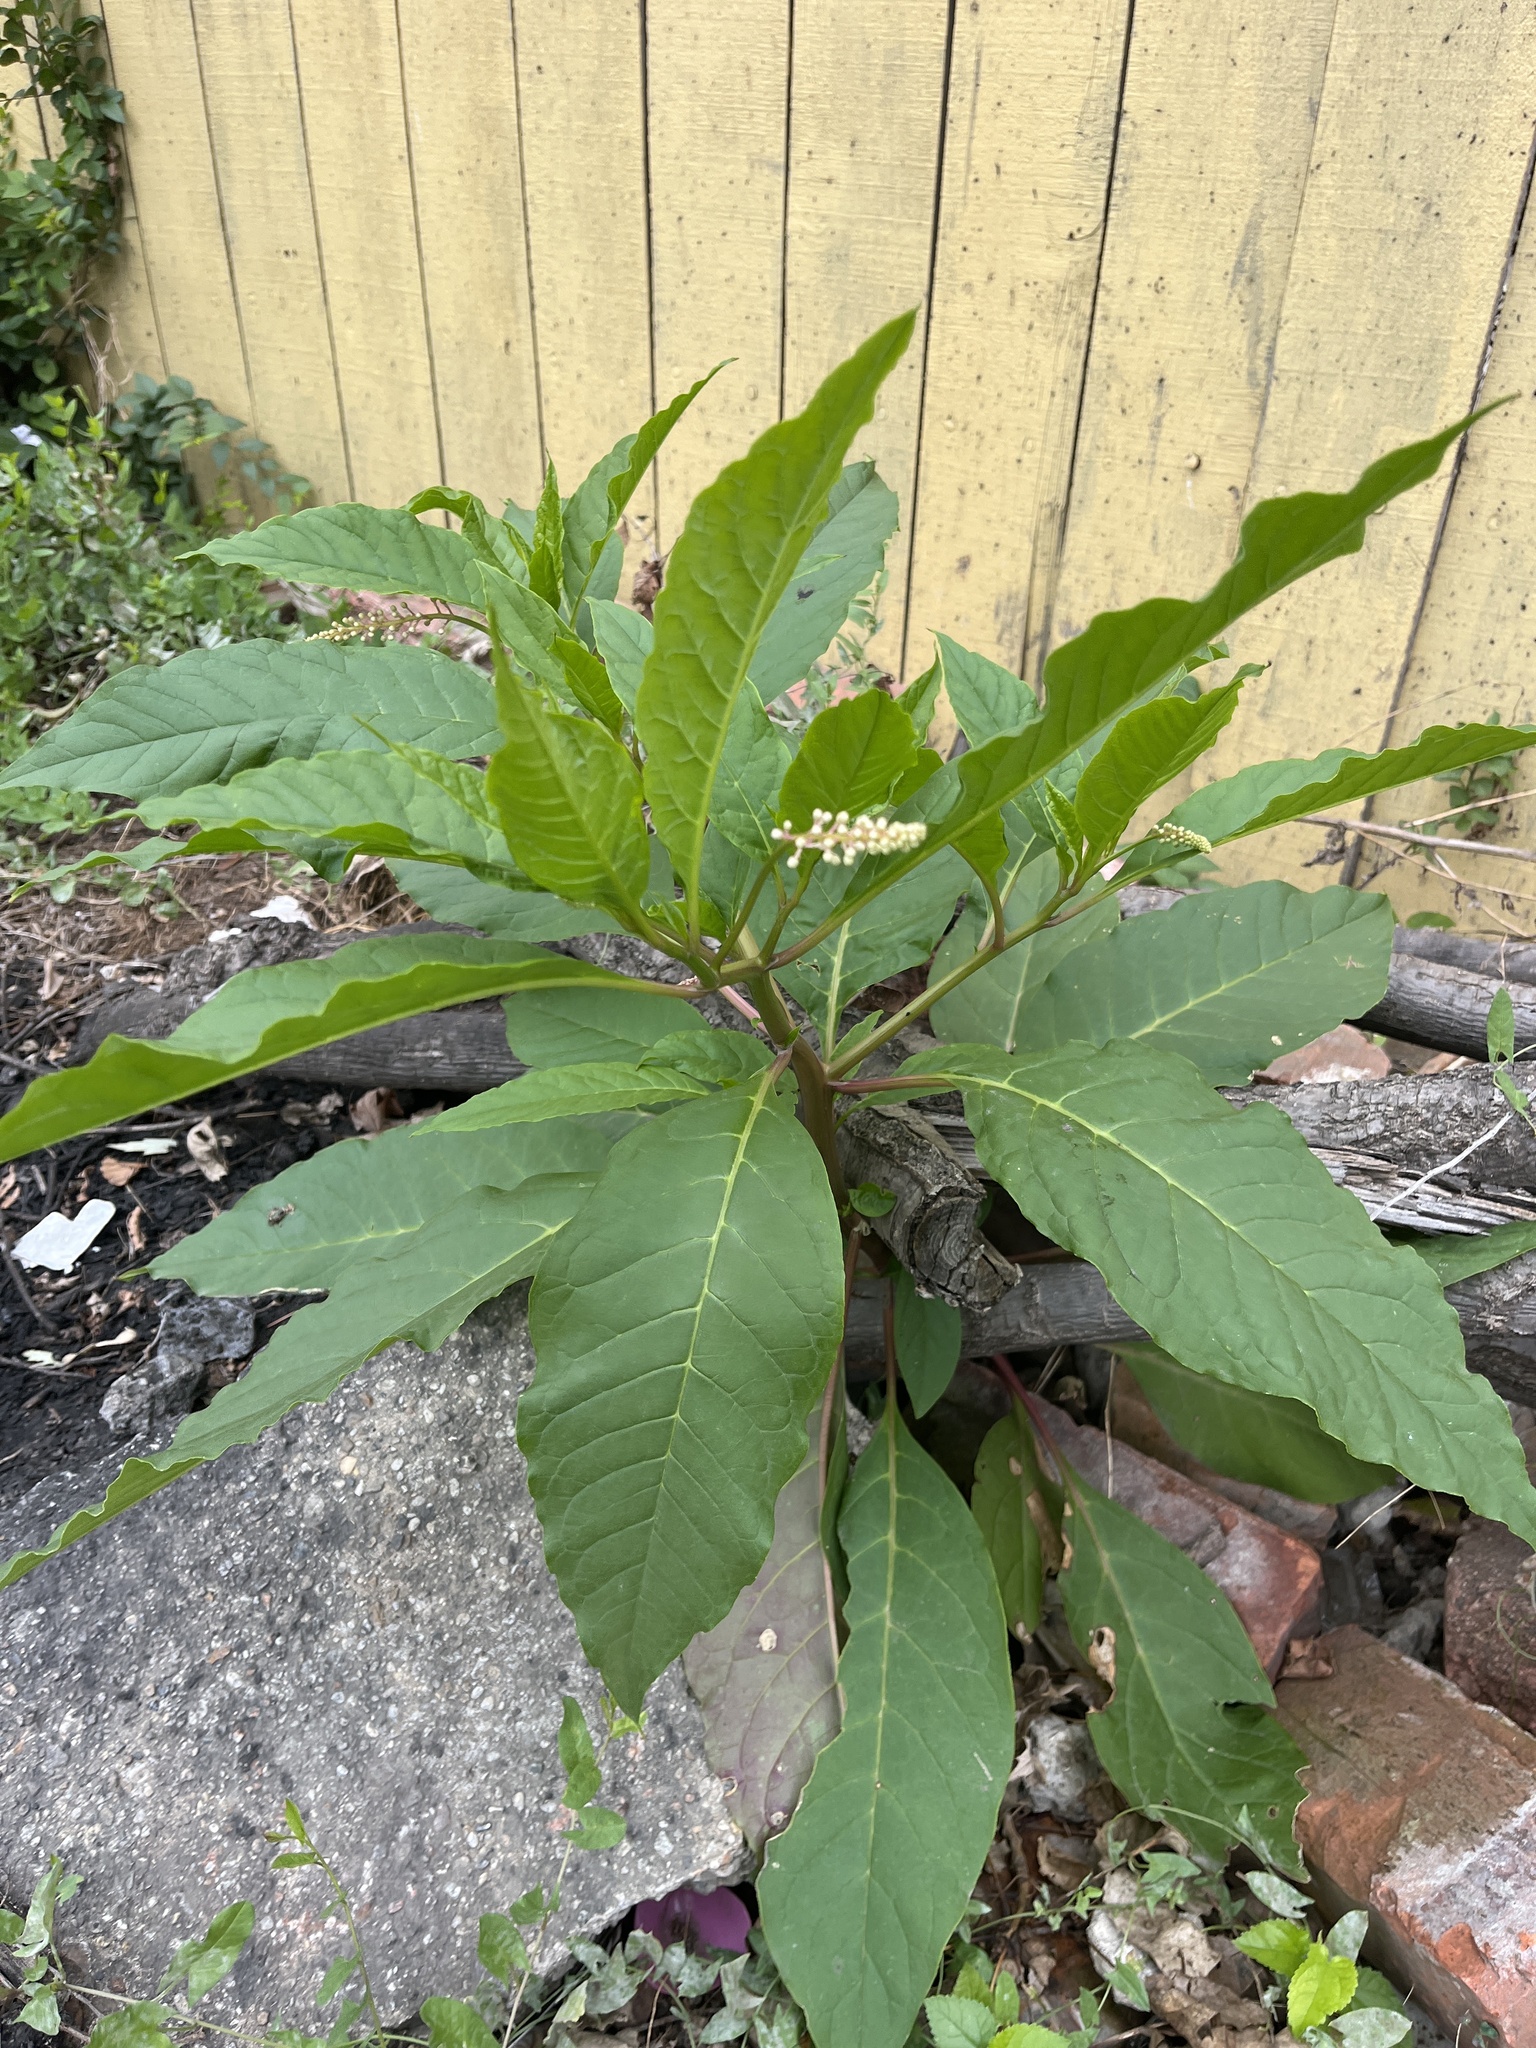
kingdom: Plantae
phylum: Tracheophyta
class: Magnoliopsida
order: Caryophyllales
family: Phytolaccaceae
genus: Phytolacca
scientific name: Phytolacca americana
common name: American pokeweed
